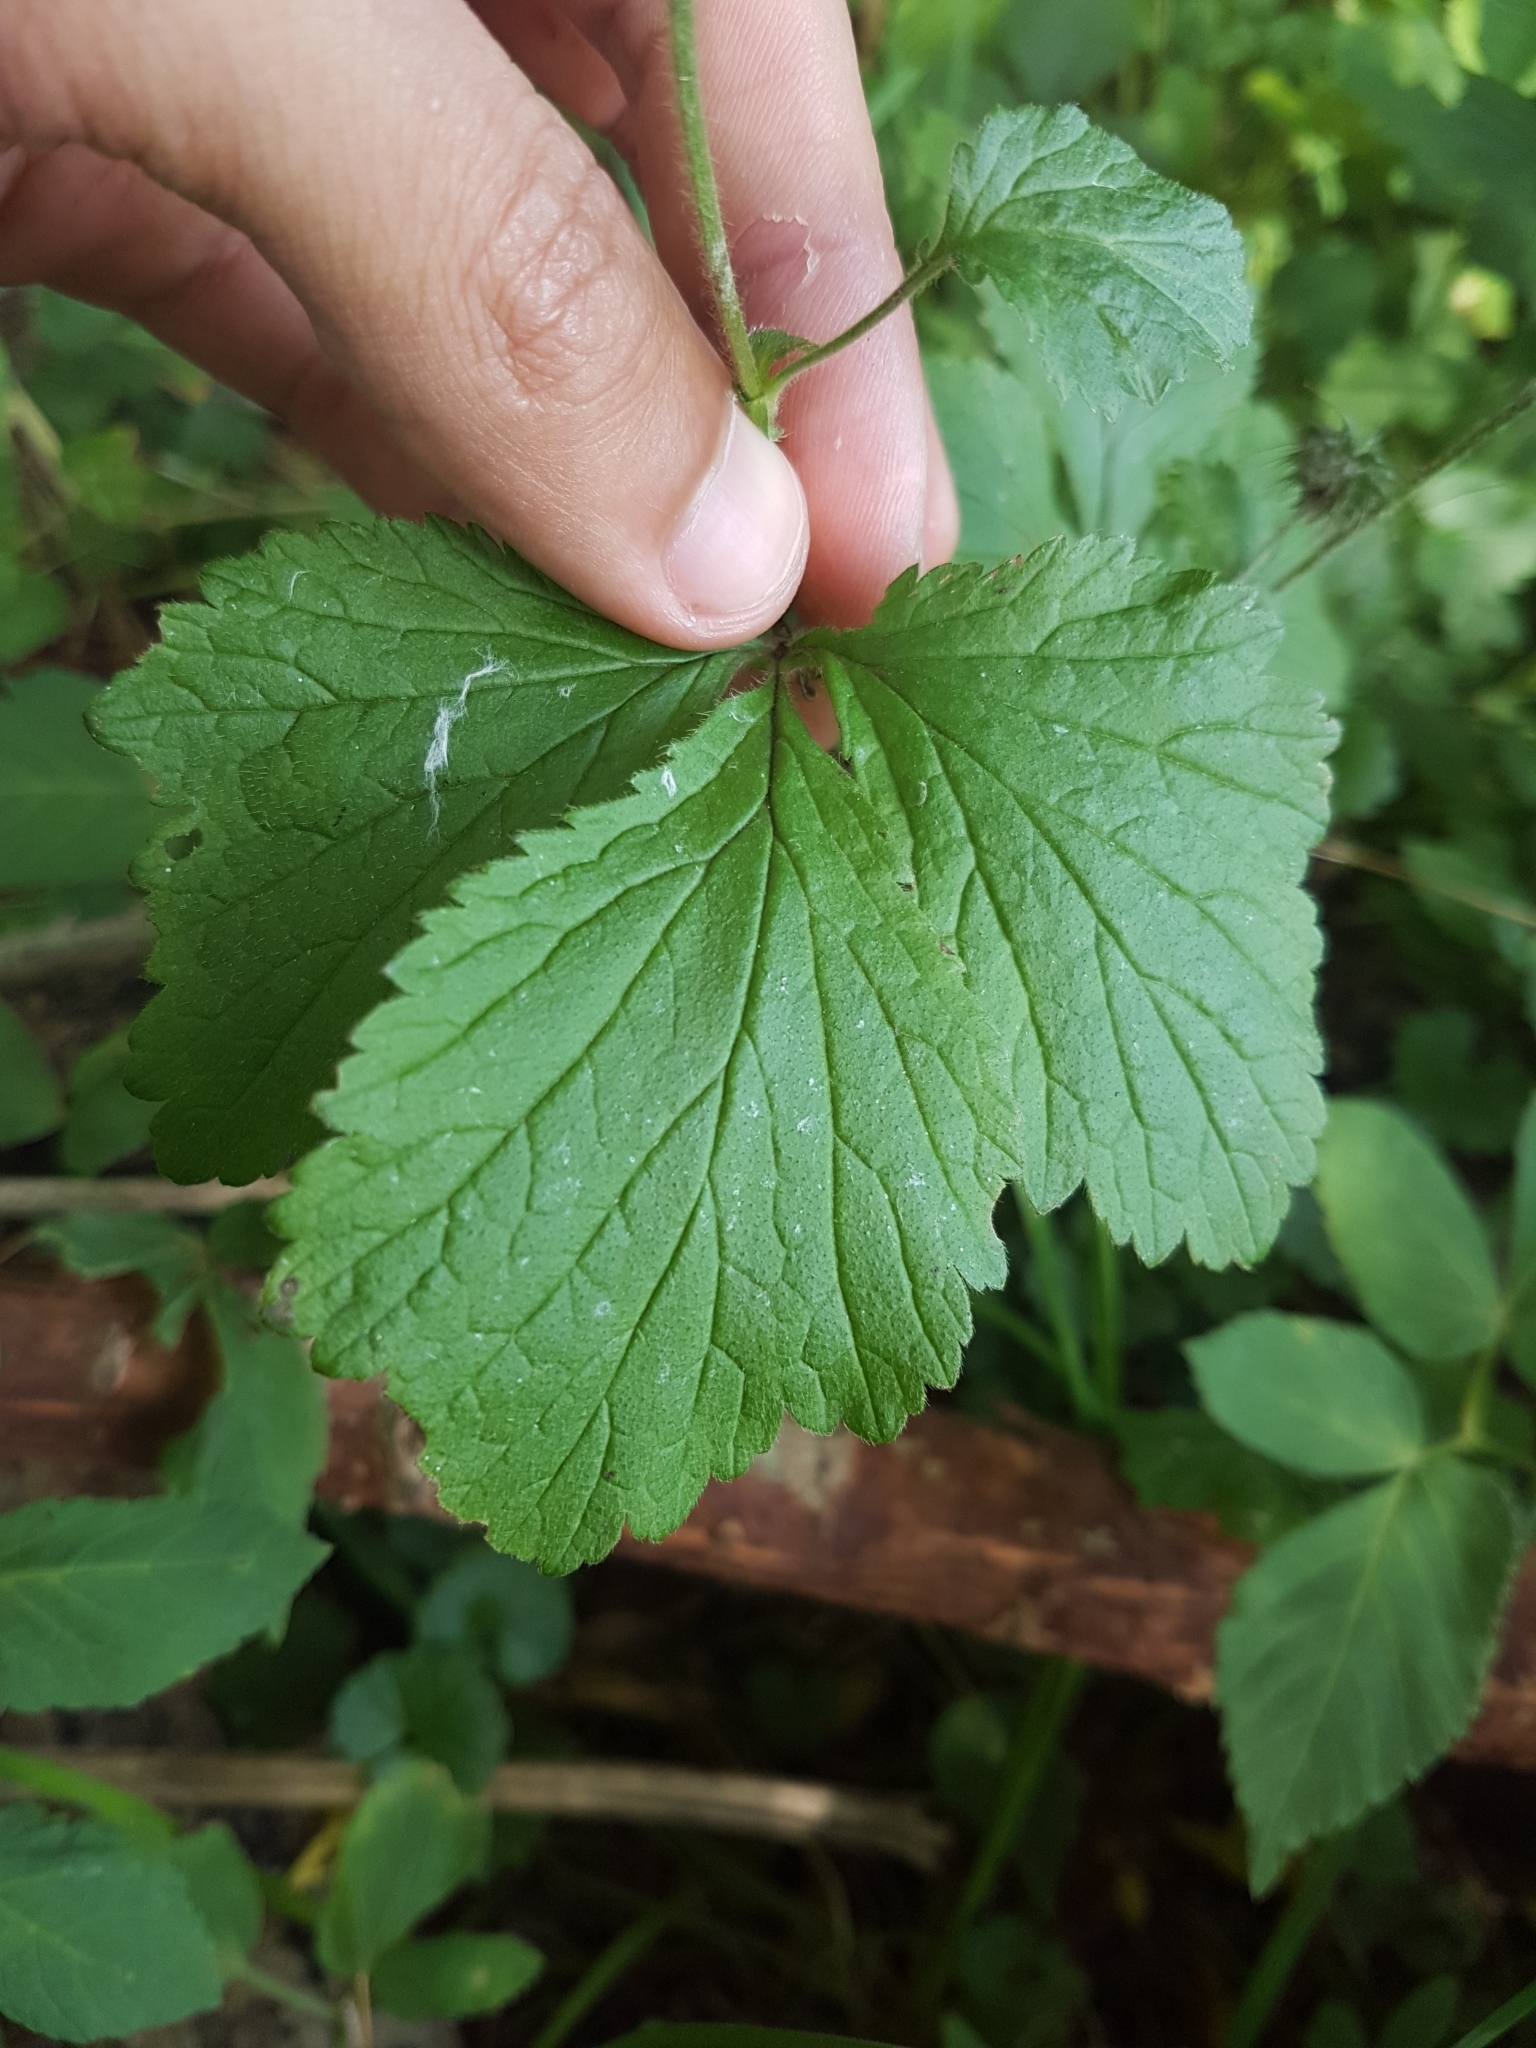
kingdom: Plantae
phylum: Tracheophyta
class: Magnoliopsida
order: Rosales
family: Rosaceae
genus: Geum
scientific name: Geum urbanum
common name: Wood avens
